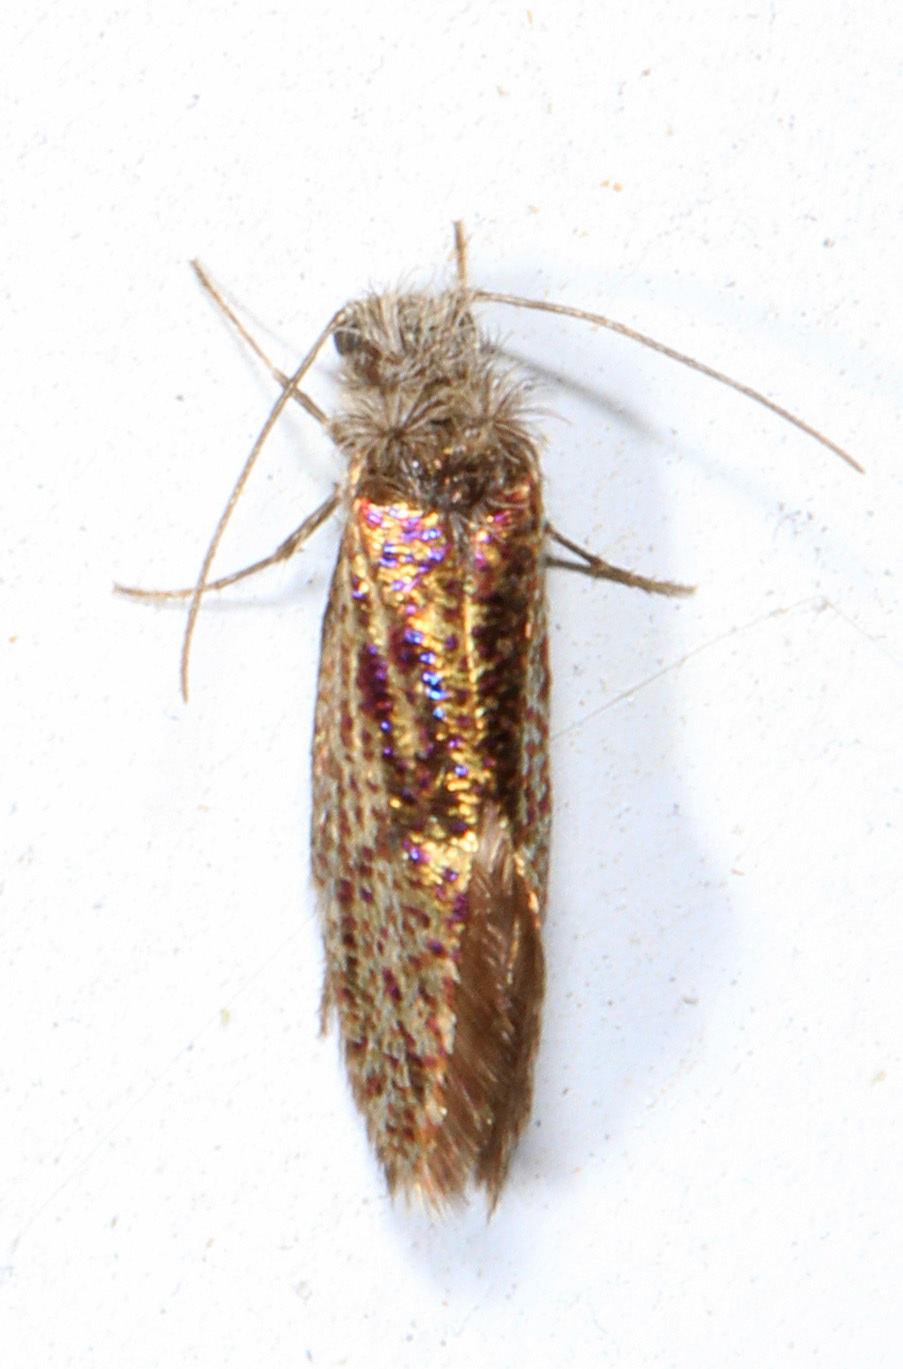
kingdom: Animalia
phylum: Arthropoda
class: Insecta
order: Lepidoptera
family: Eriocraniidae
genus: Dyseriocrania
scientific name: Dyseriocrania griseocapitella
